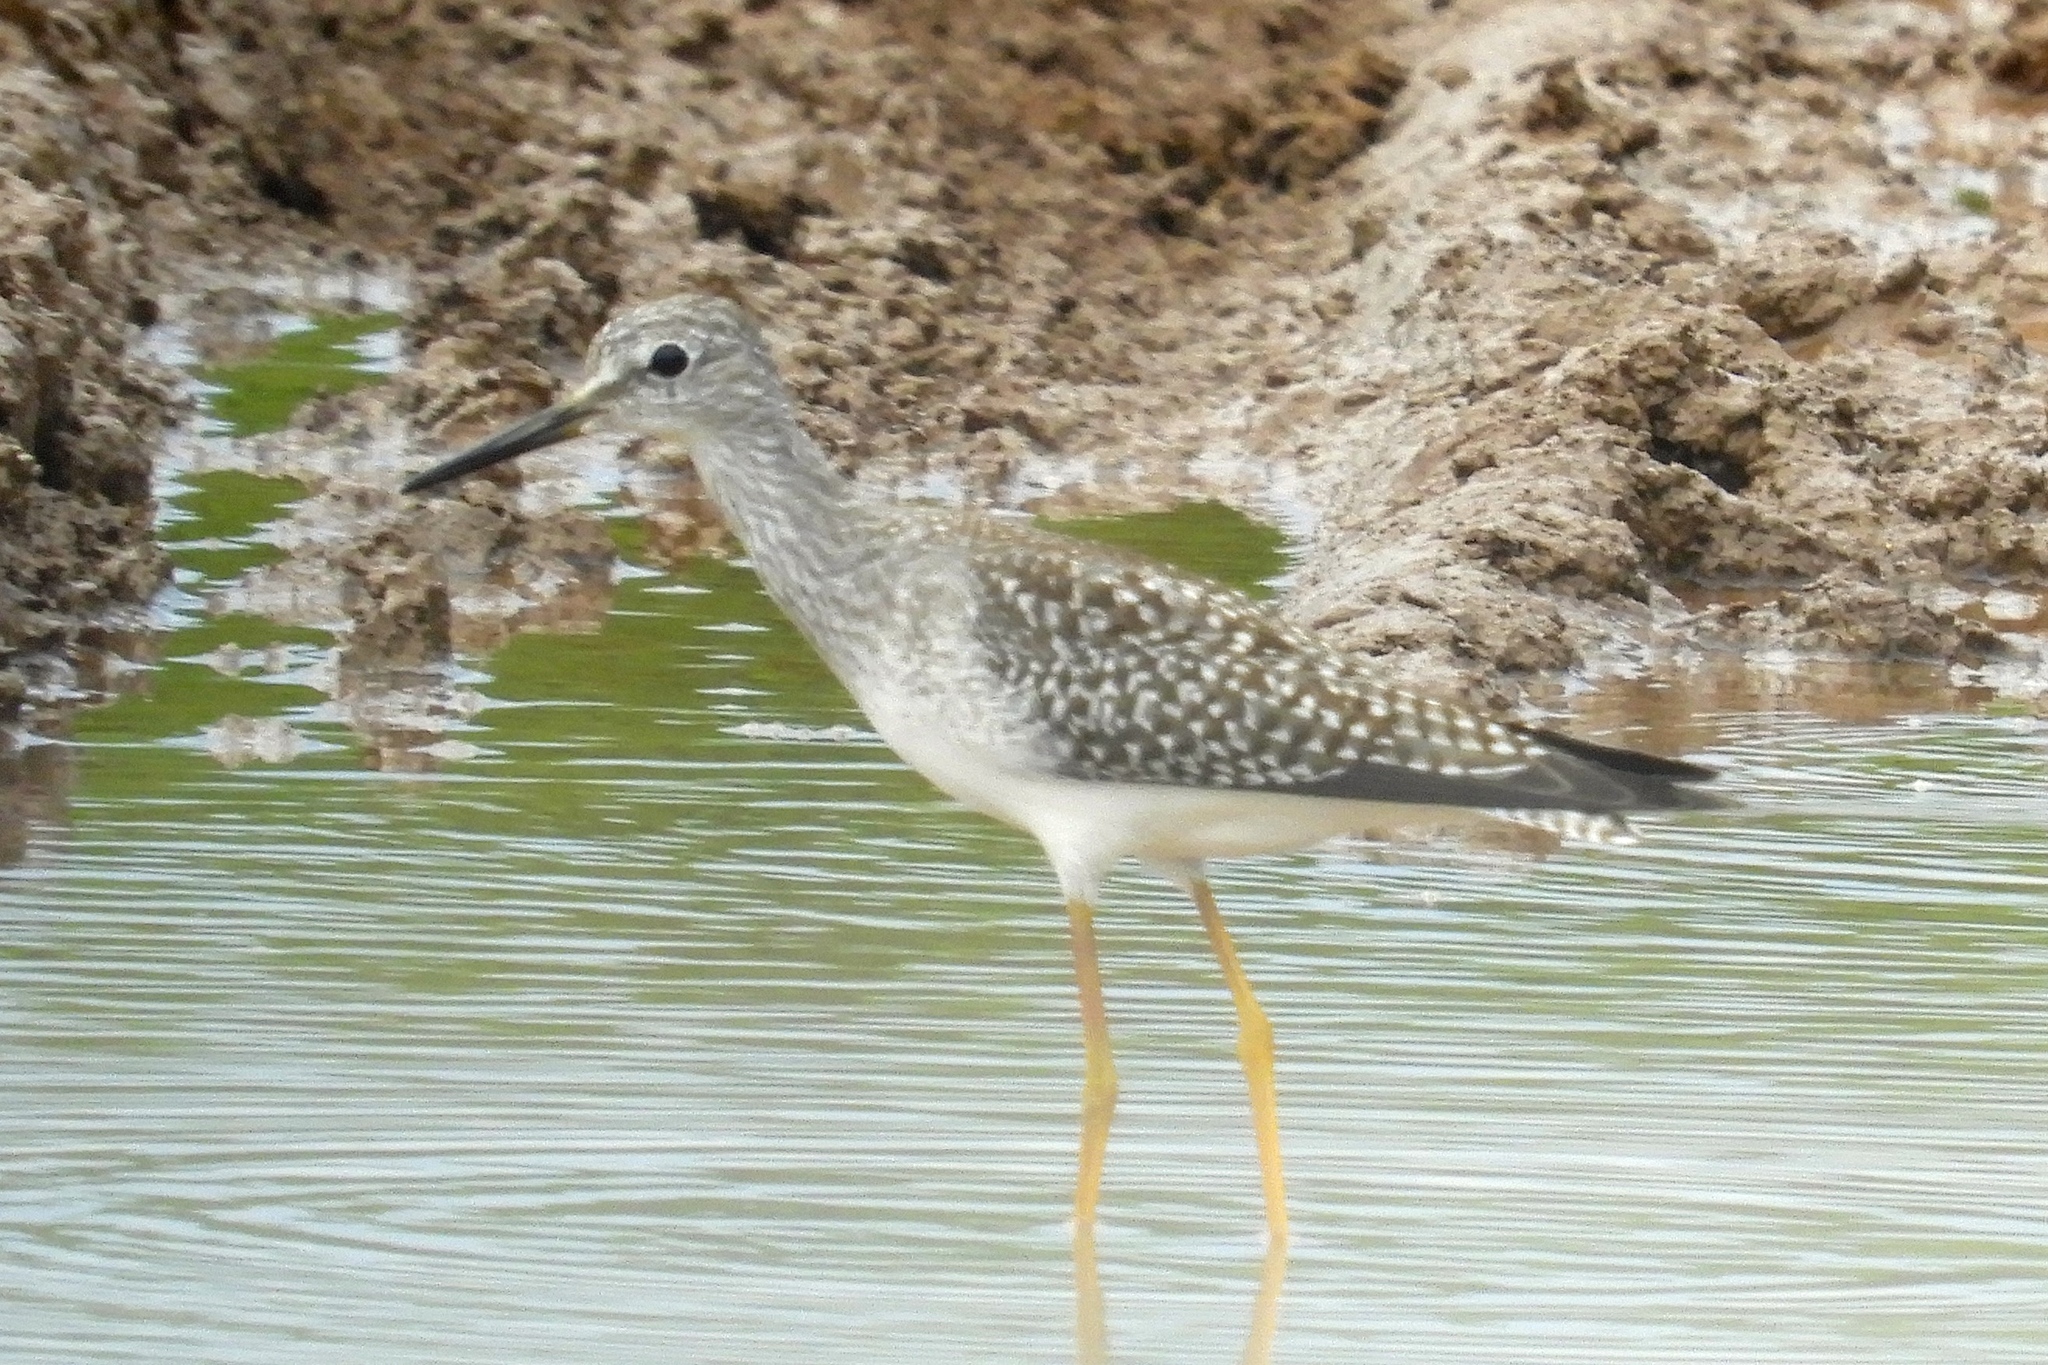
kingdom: Animalia
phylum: Chordata
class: Aves
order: Charadriiformes
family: Scolopacidae
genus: Tringa
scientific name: Tringa solitaria
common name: Solitary sandpiper
